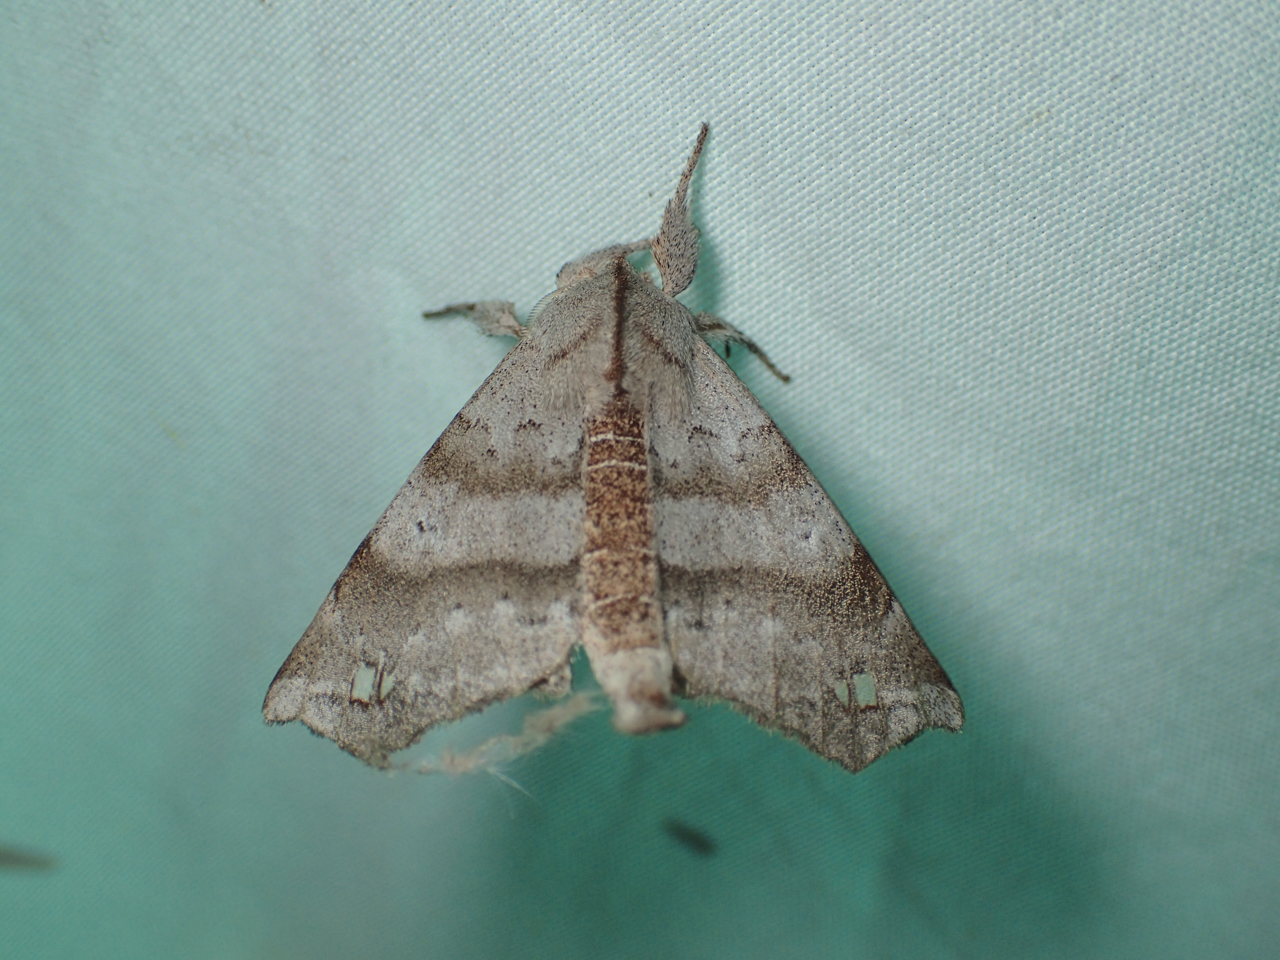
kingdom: Animalia
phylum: Arthropoda
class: Insecta
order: Lepidoptera
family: Apatelodidae
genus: Olceclostera
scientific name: Olceclostera angelica
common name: Angel moth
